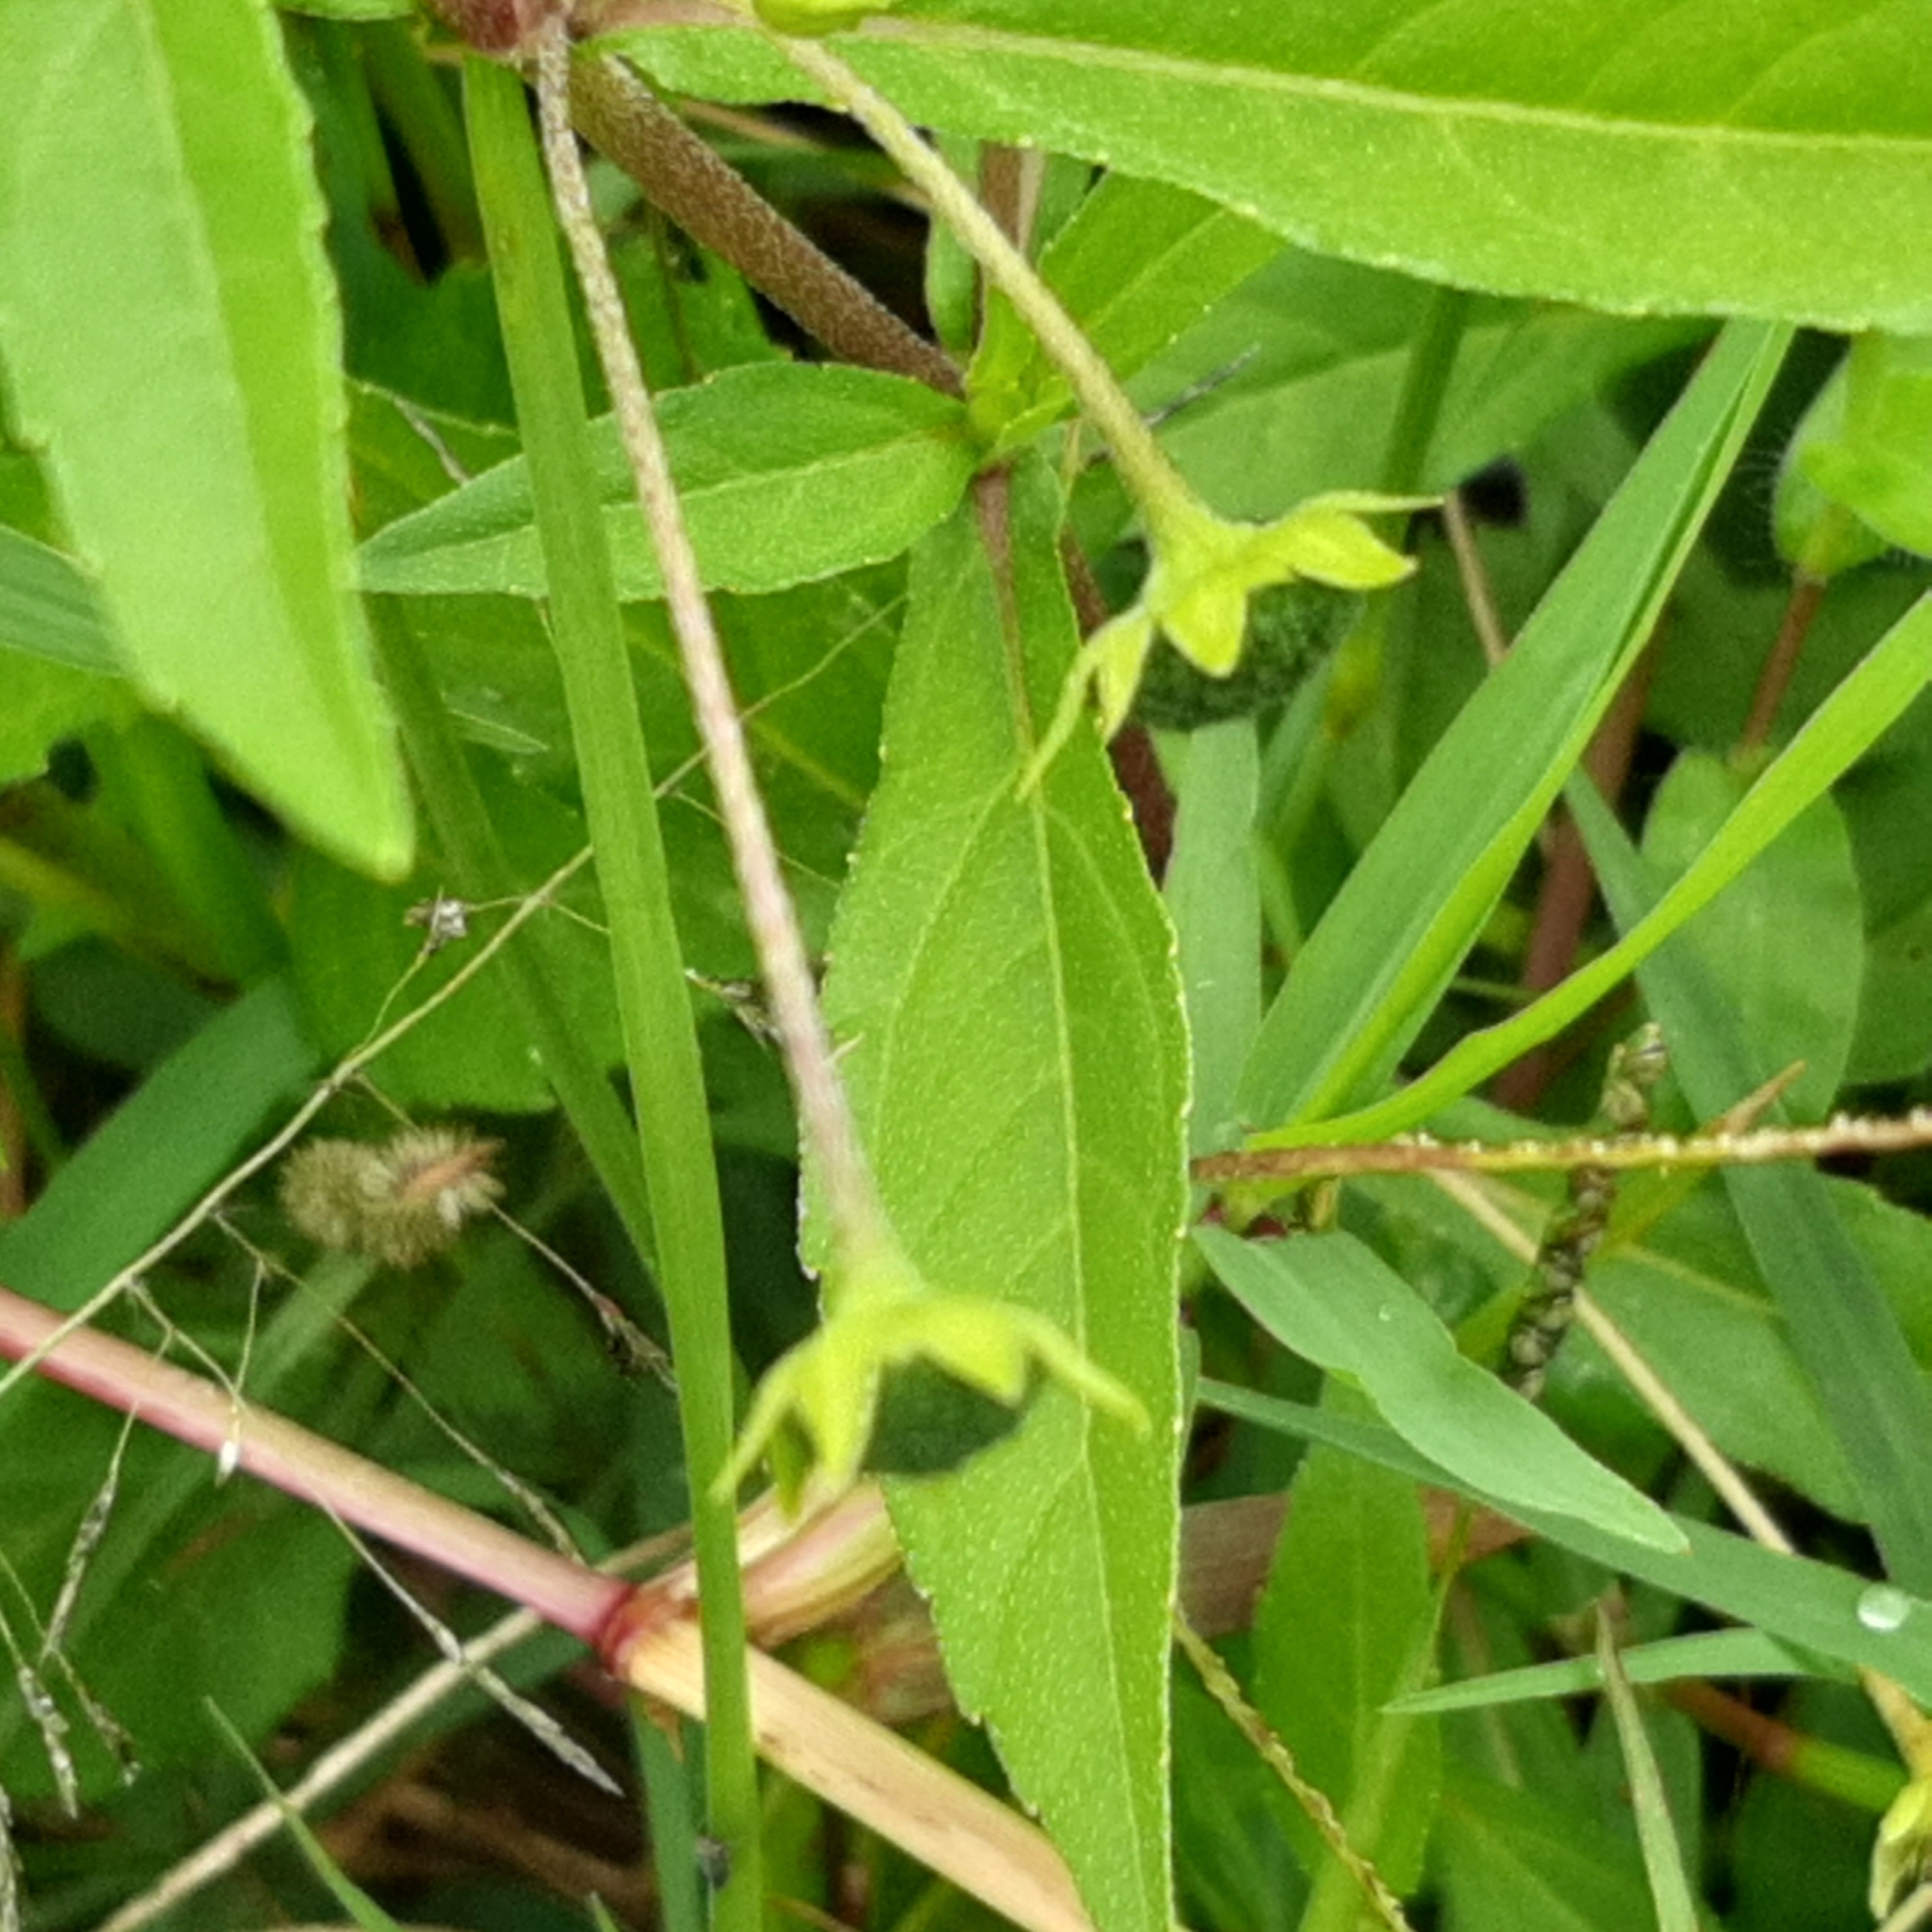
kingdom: Plantae
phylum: Tracheophyta
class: Magnoliopsida
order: Asterales
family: Asteraceae
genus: Eclipta
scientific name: Eclipta prostrata
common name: False daisy
